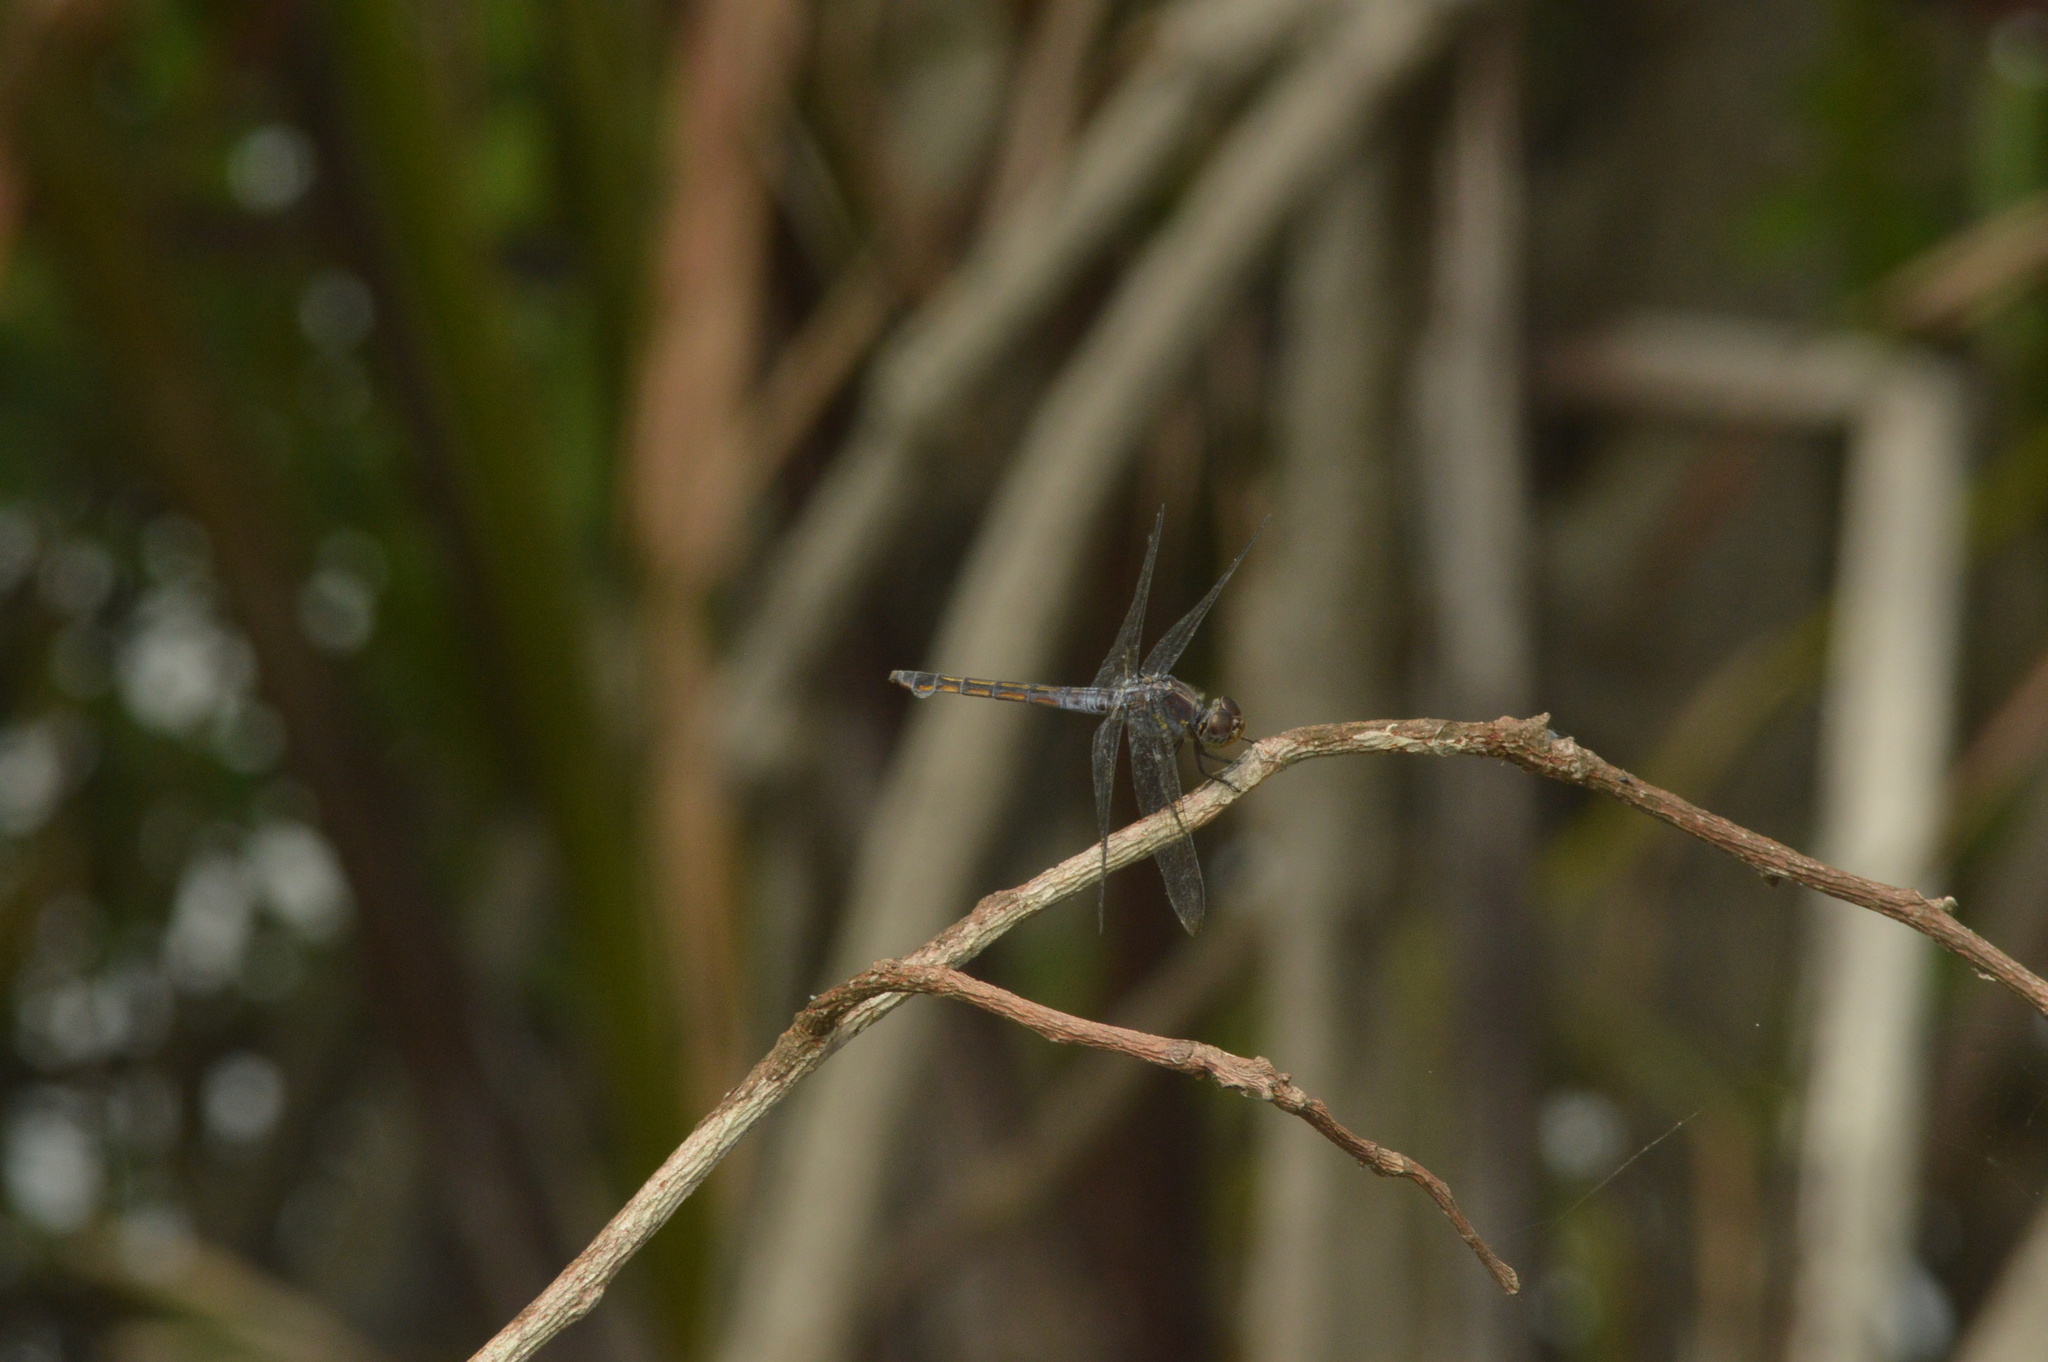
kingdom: Animalia
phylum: Arthropoda
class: Insecta
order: Odonata
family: Libellulidae
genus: Potamarcha
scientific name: Potamarcha congener
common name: Blue chaser
